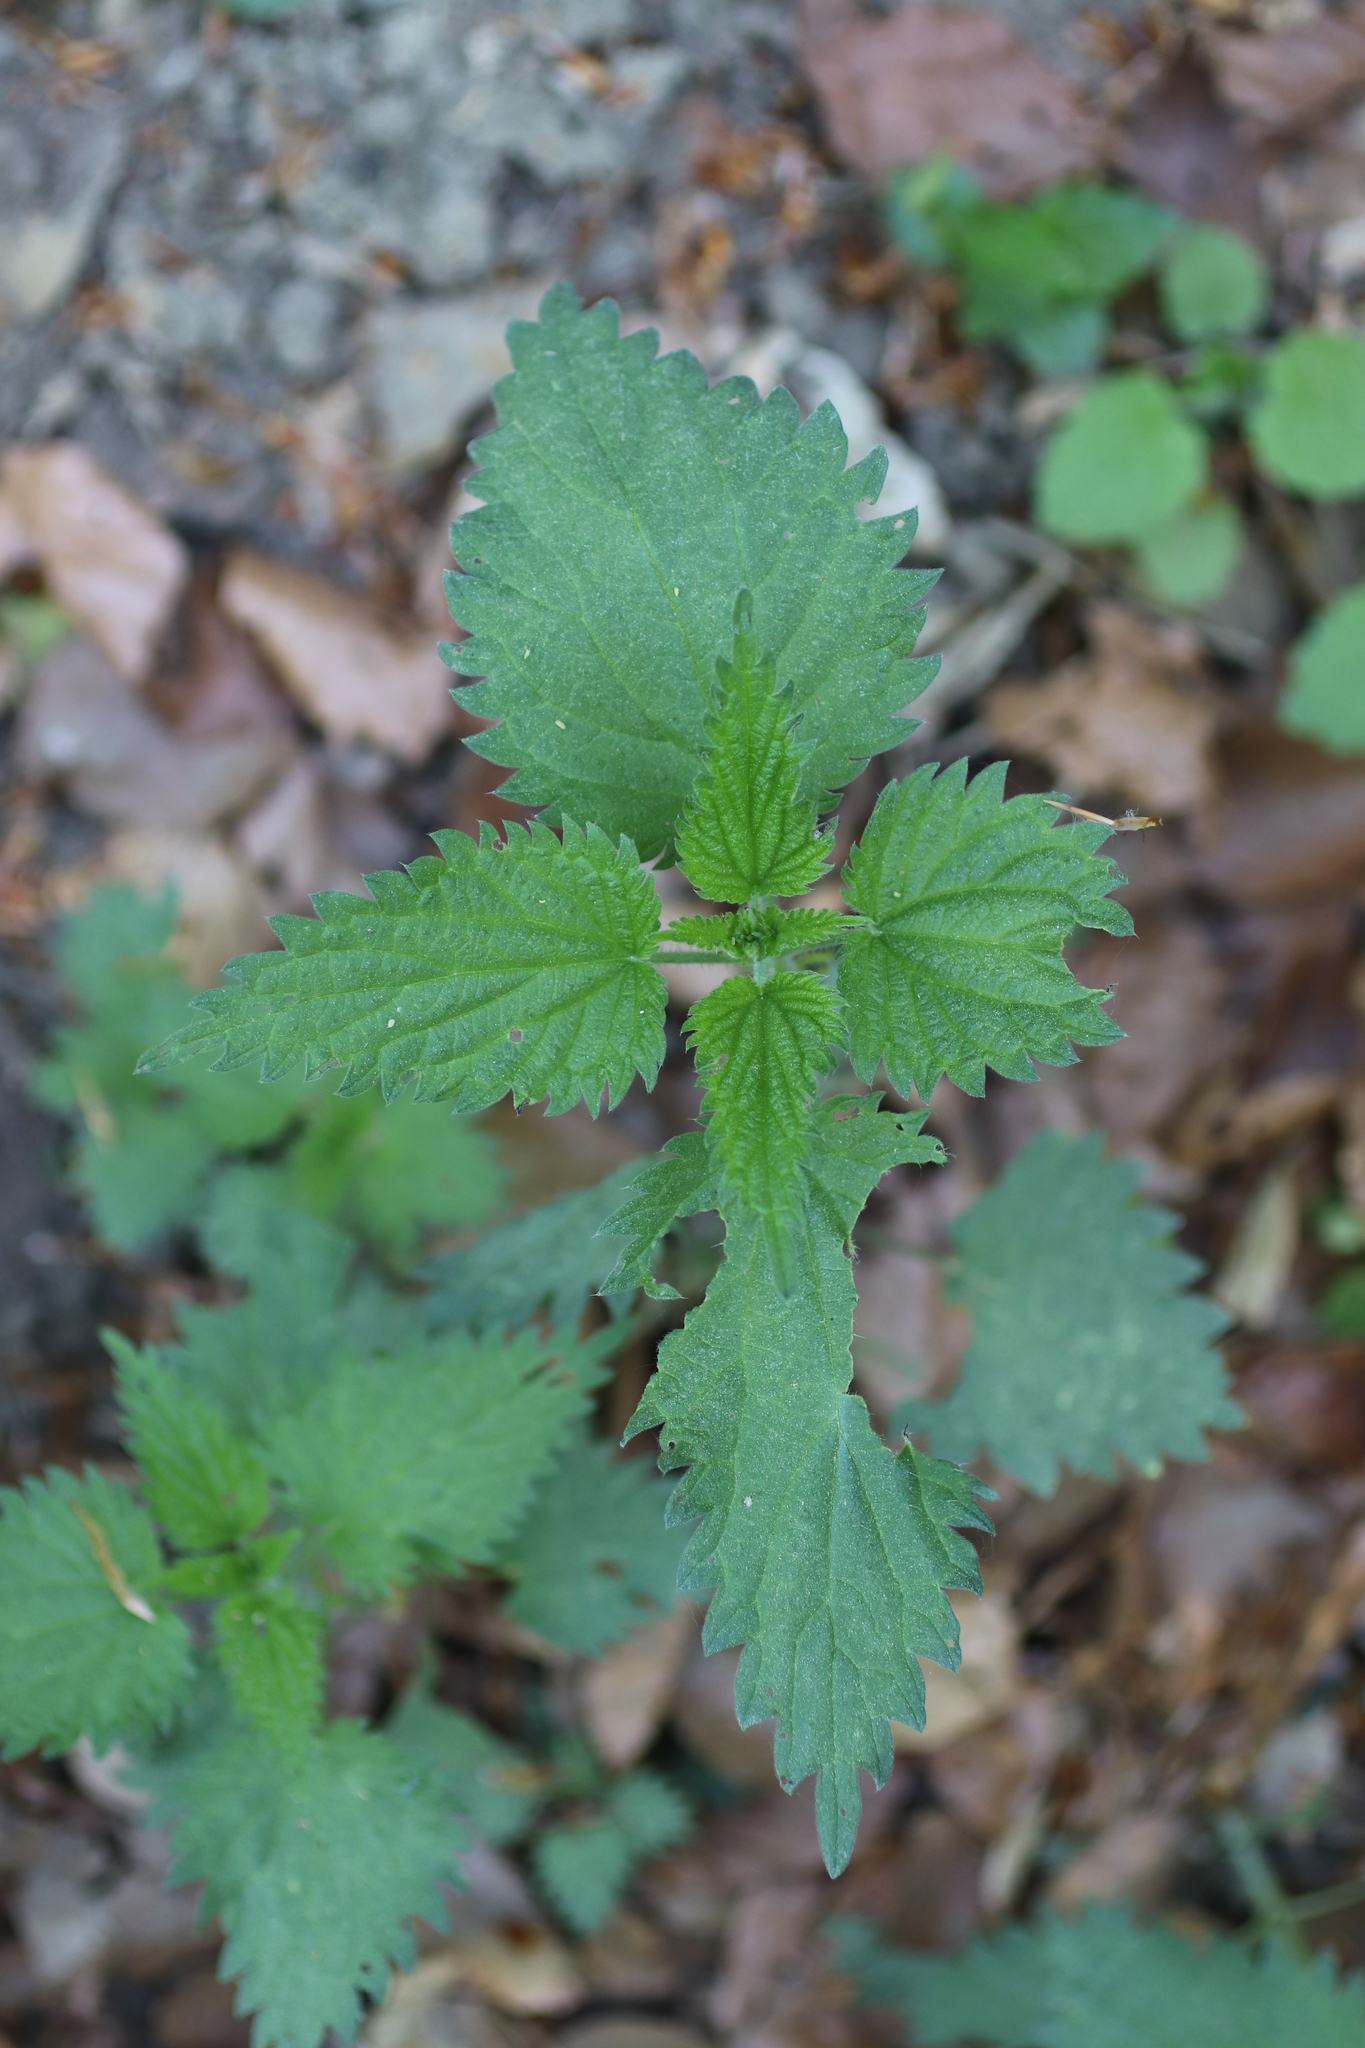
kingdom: Plantae
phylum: Tracheophyta
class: Magnoliopsida
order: Rosales
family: Urticaceae
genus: Urtica
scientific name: Urtica dioica
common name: Common nettle
